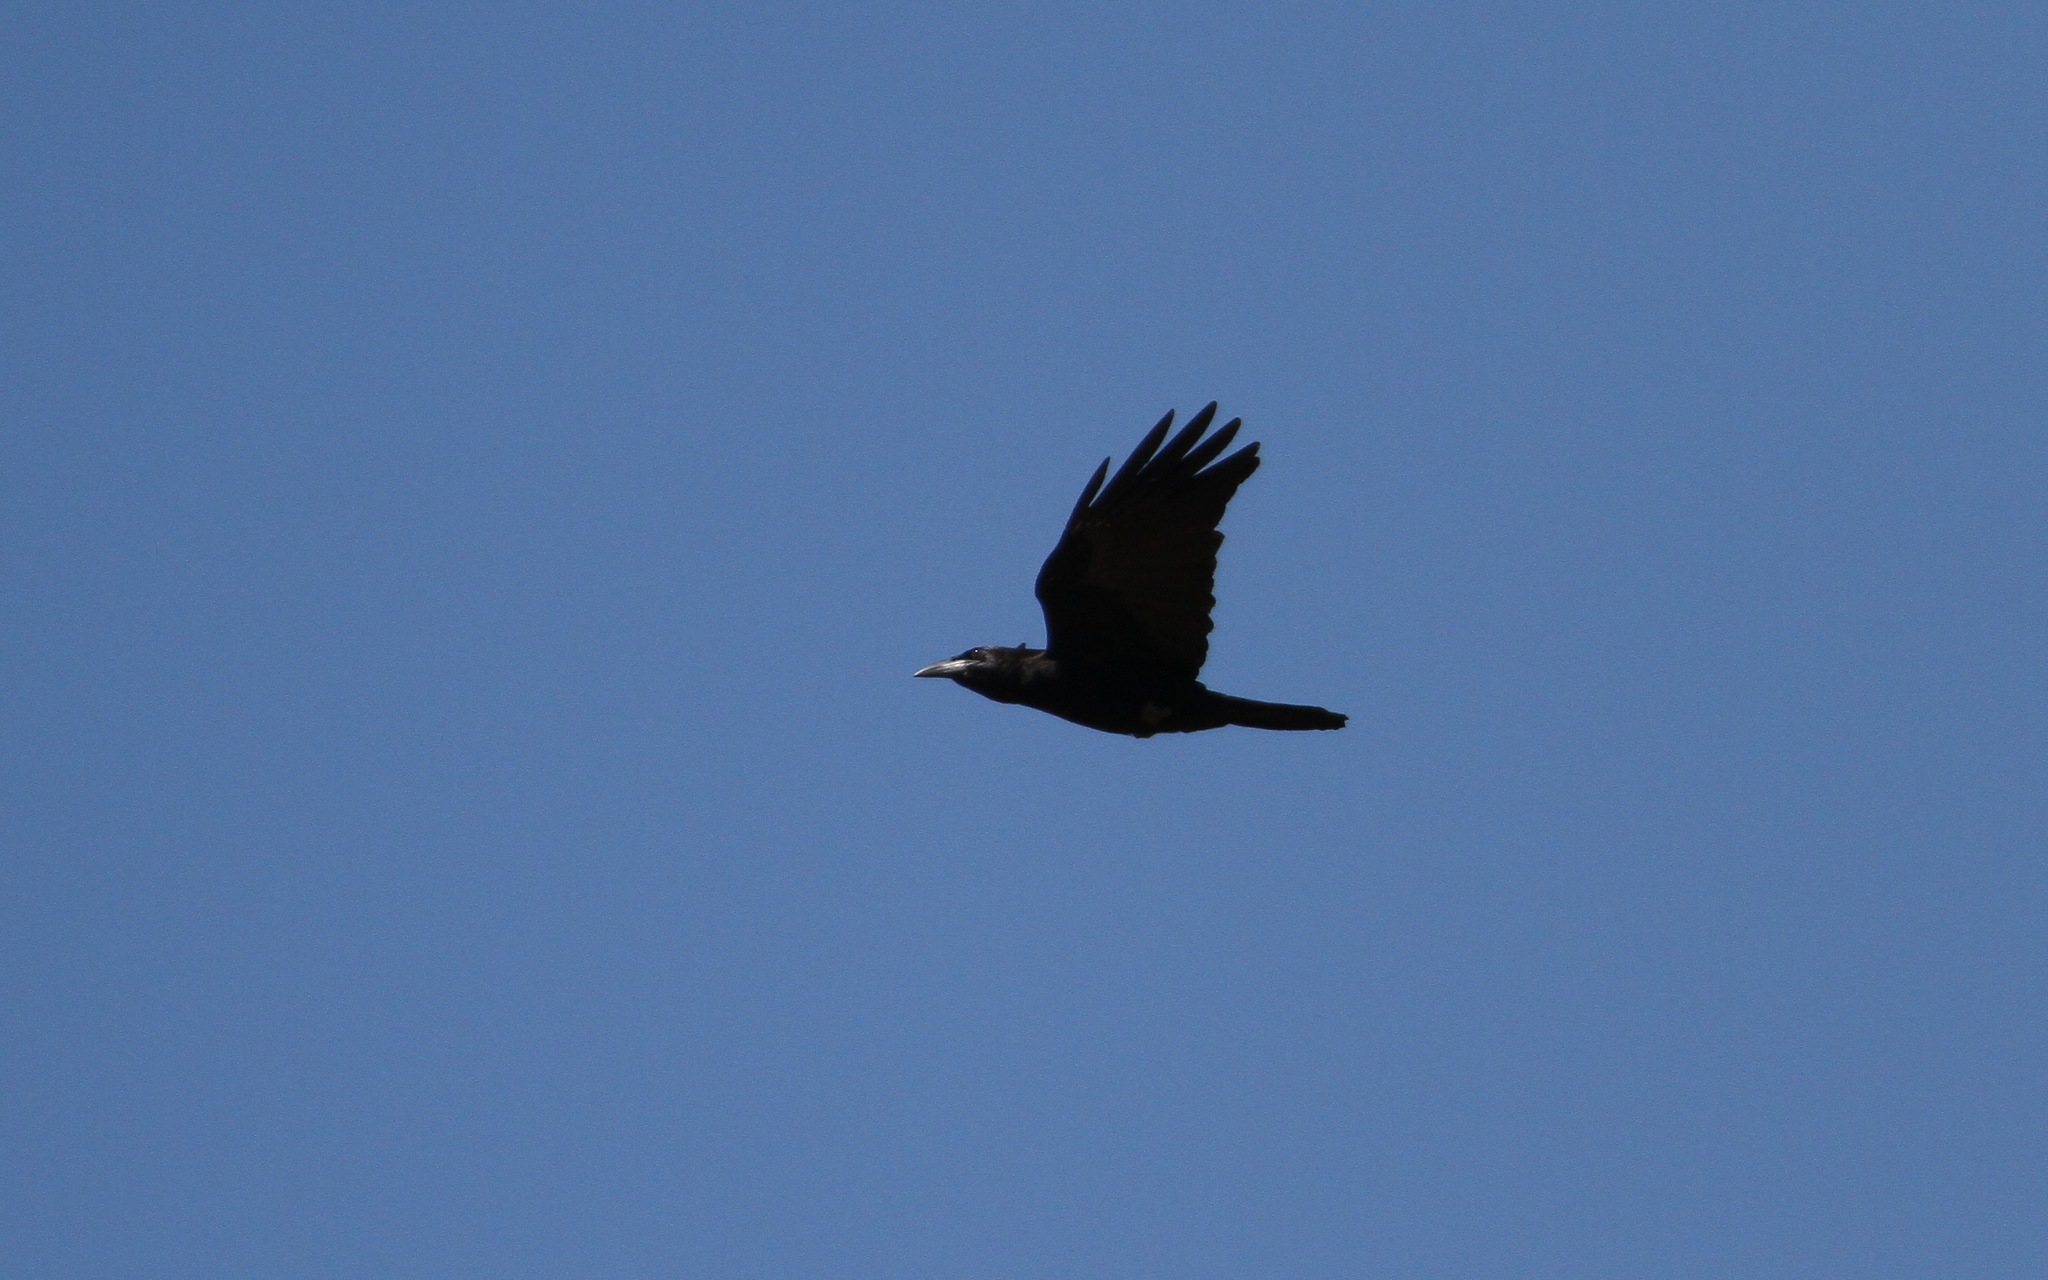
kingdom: Animalia
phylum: Chordata
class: Aves
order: Passeriformes
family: Corvidae
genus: Corvus
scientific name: Corvus nasicus
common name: Cuban crow
